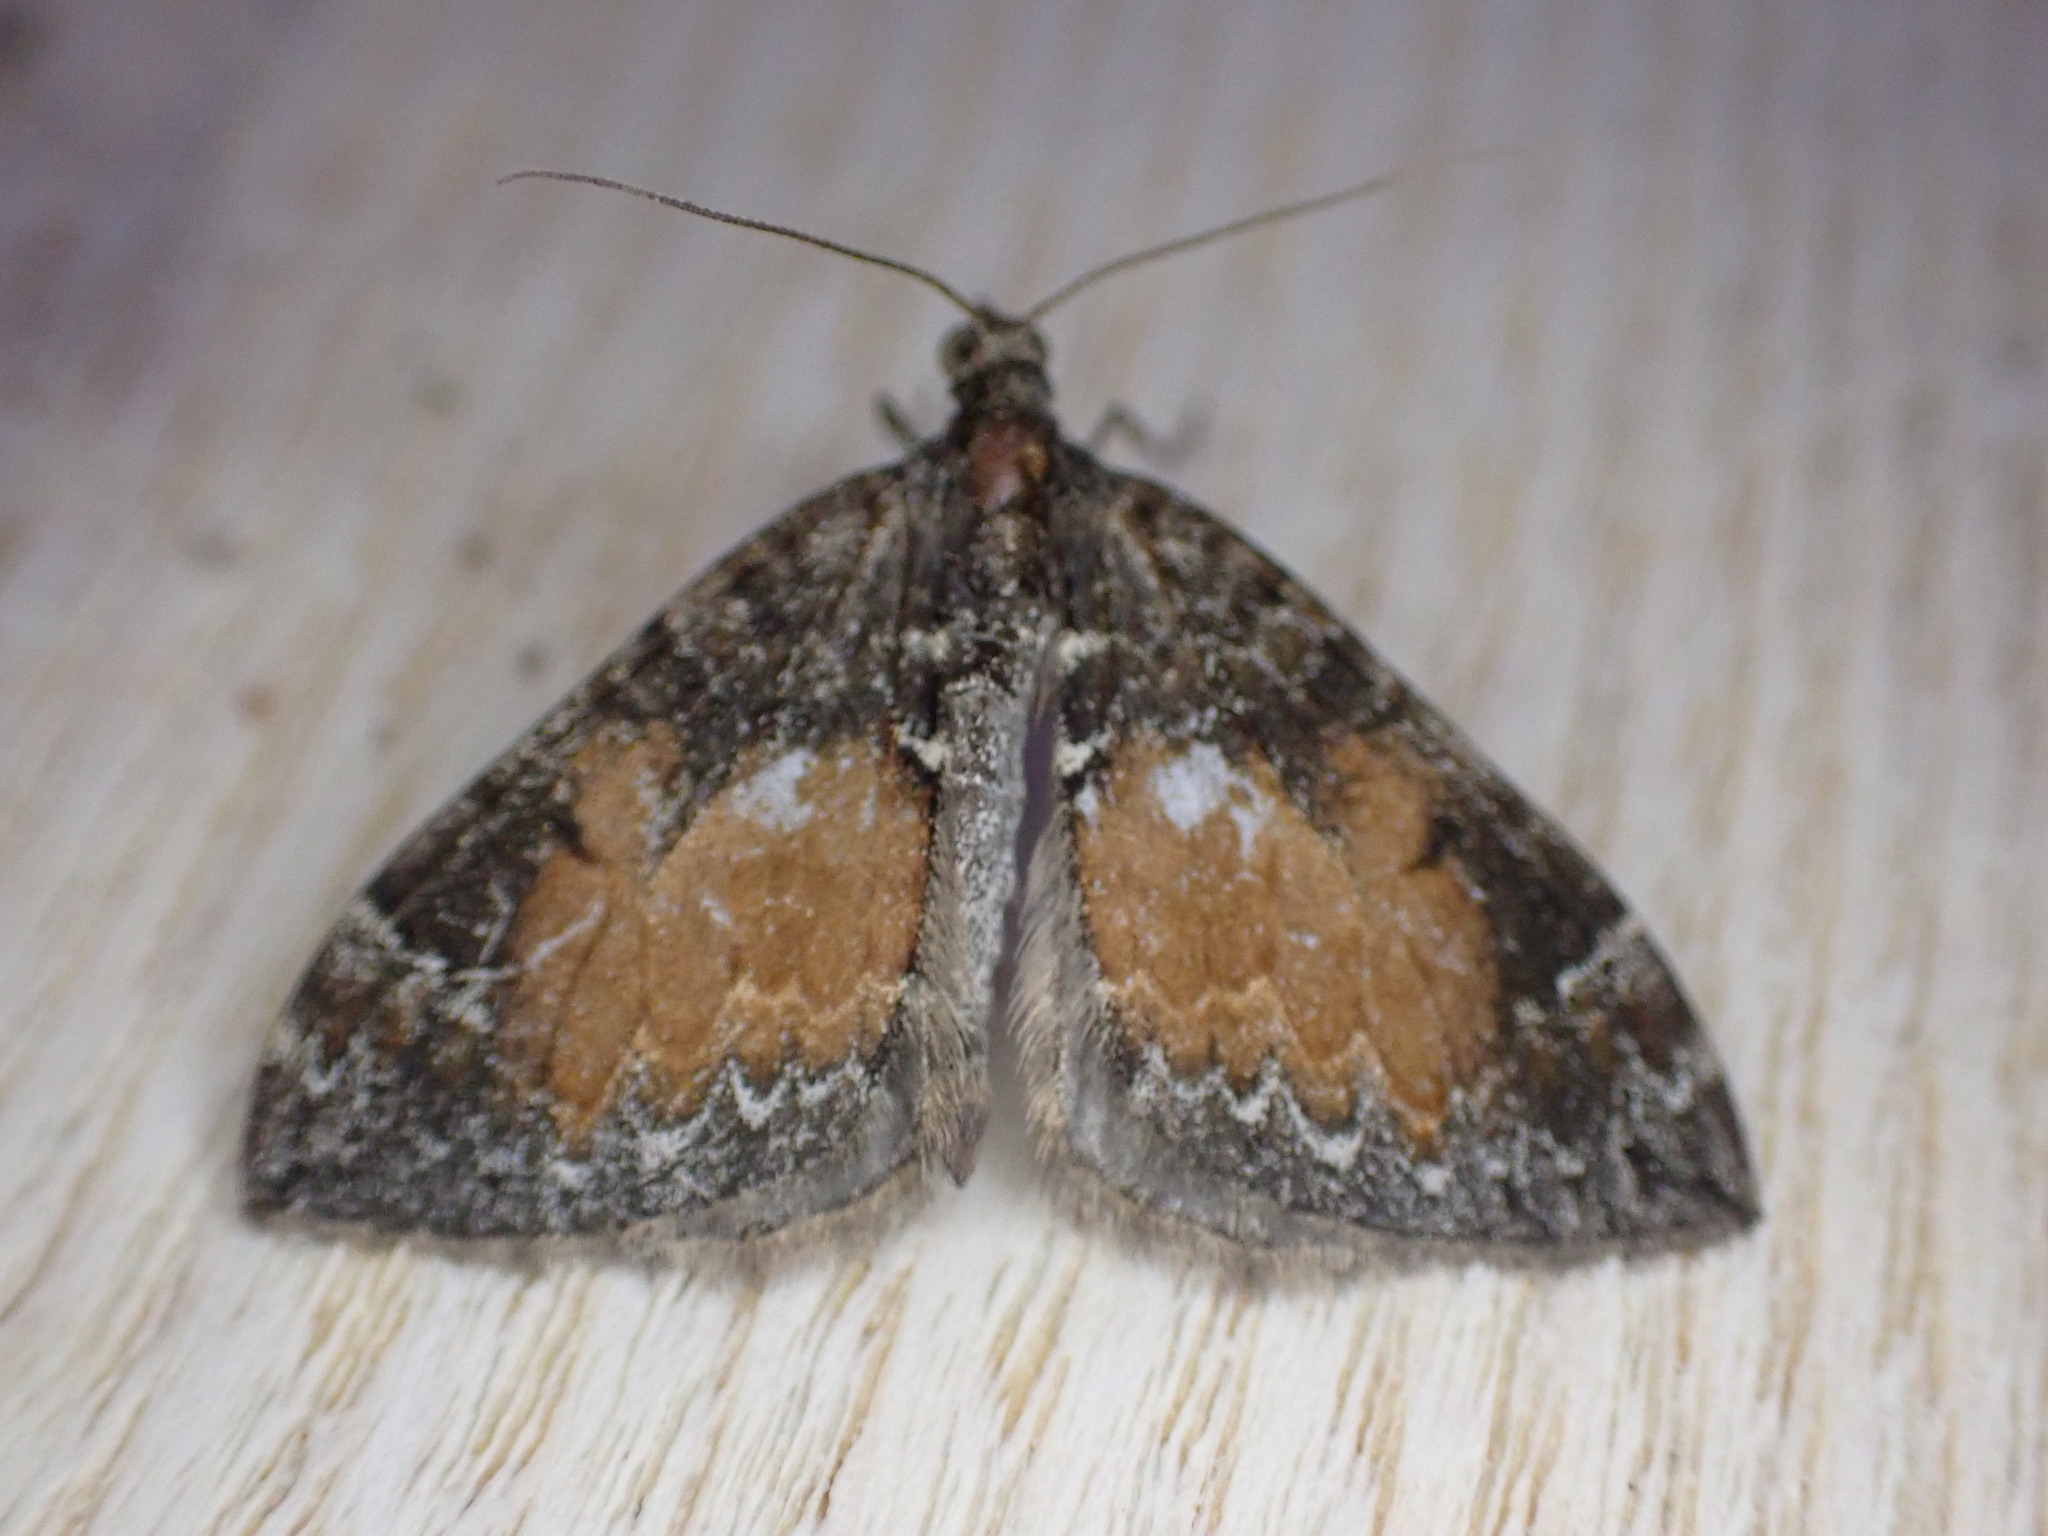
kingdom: Animalia
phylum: Arthropoda
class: Insecta
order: Lepidoptera
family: Geometridae
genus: Dysstroma
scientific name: Dysstroma truncata
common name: Common marbled carpet
